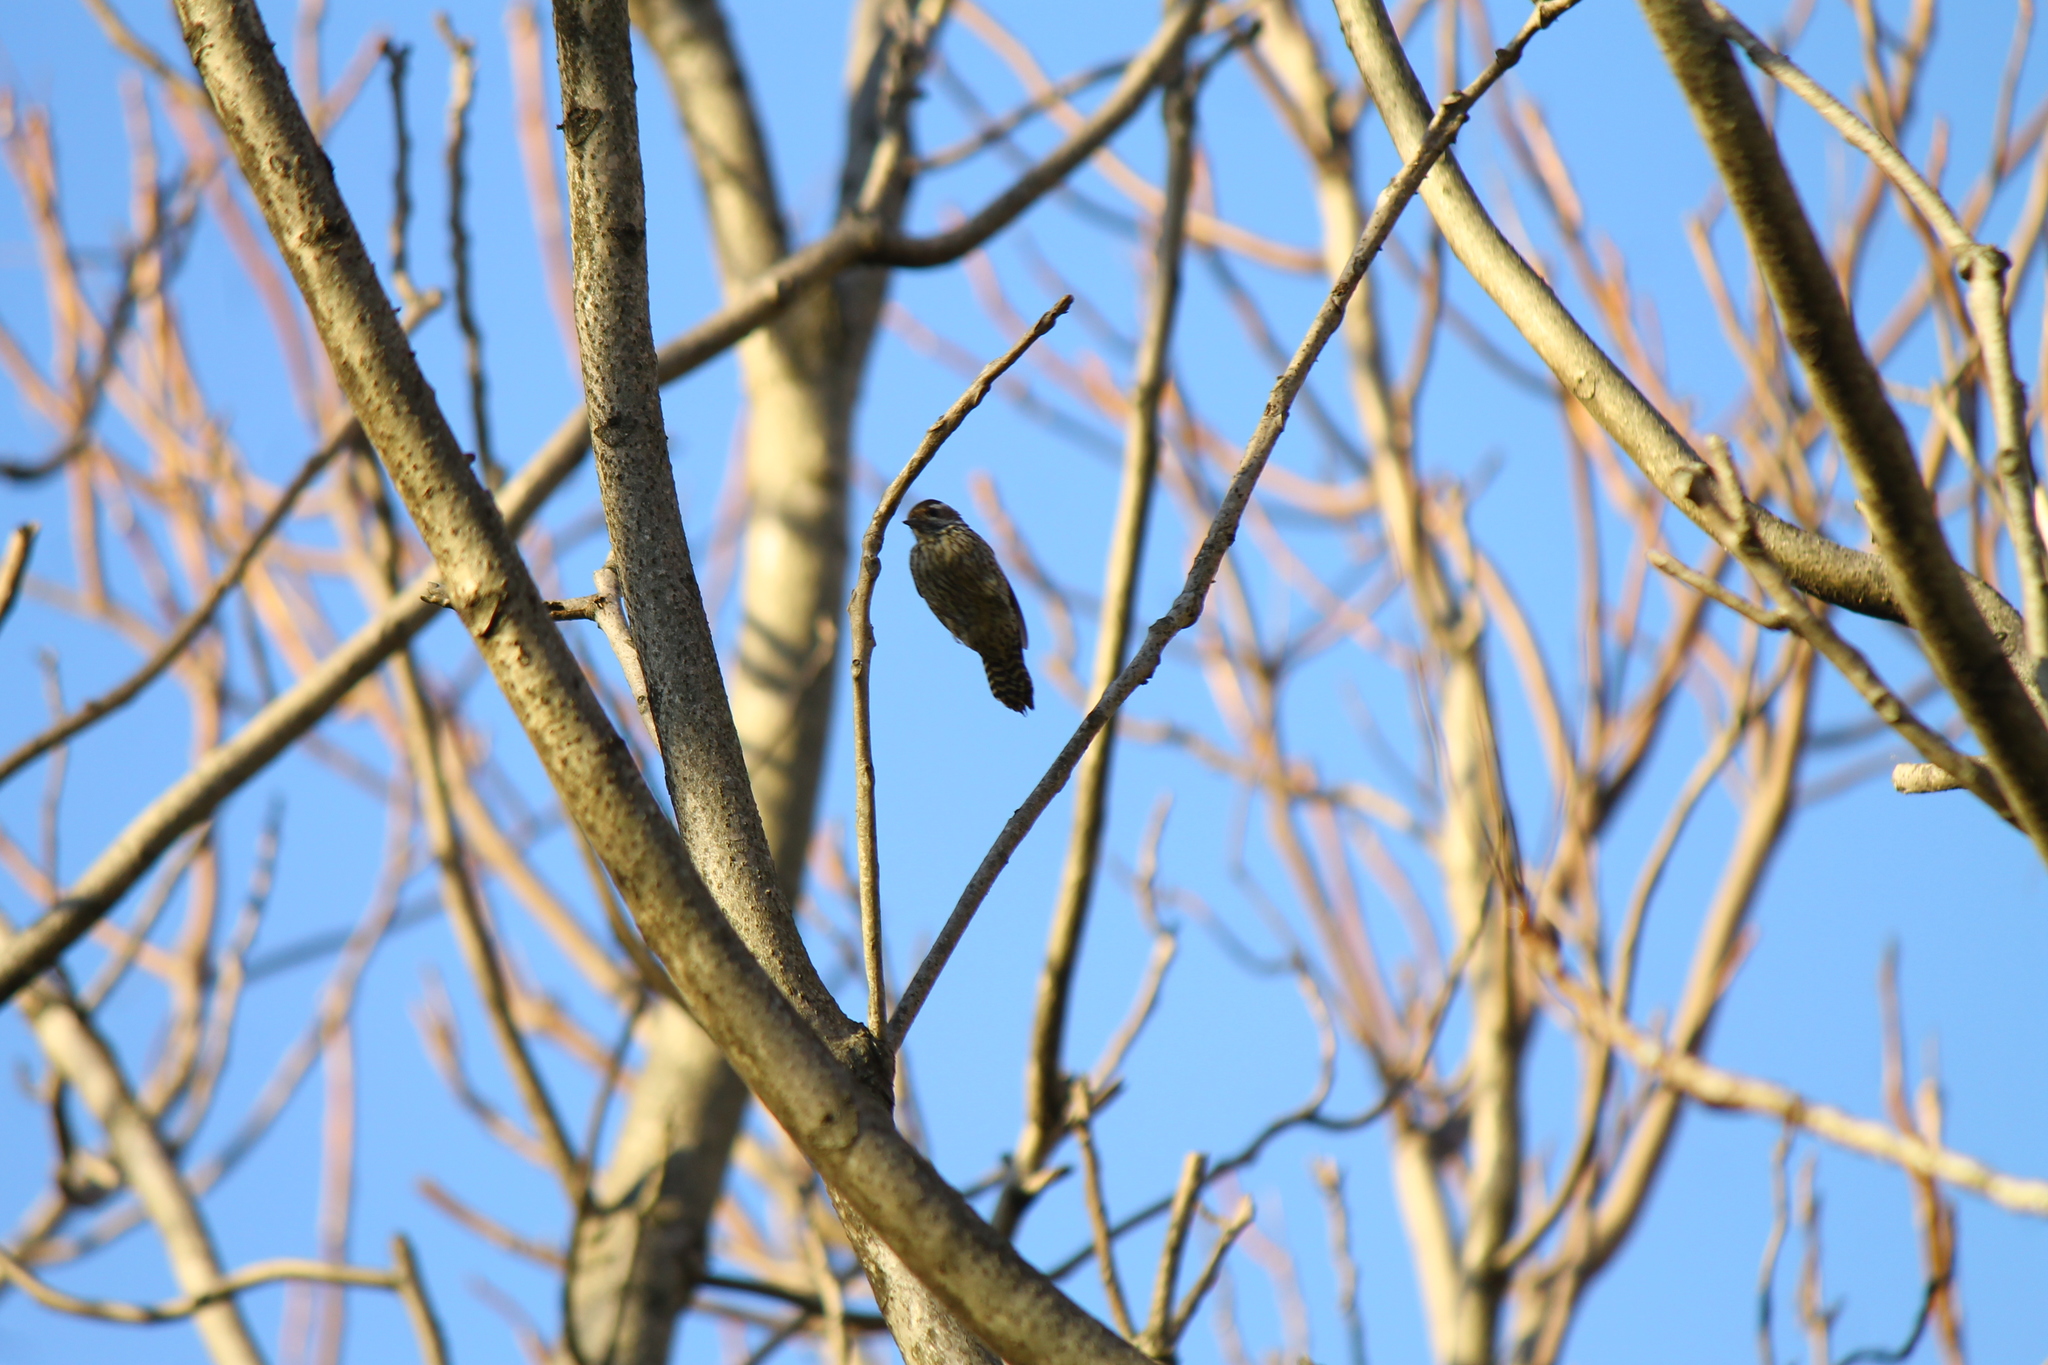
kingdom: Animalia
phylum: Chordata
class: Aves
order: Piciformes
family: Picidae
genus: Veniliornis
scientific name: Veniliornis mixtus
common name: Checkered woodpecker
